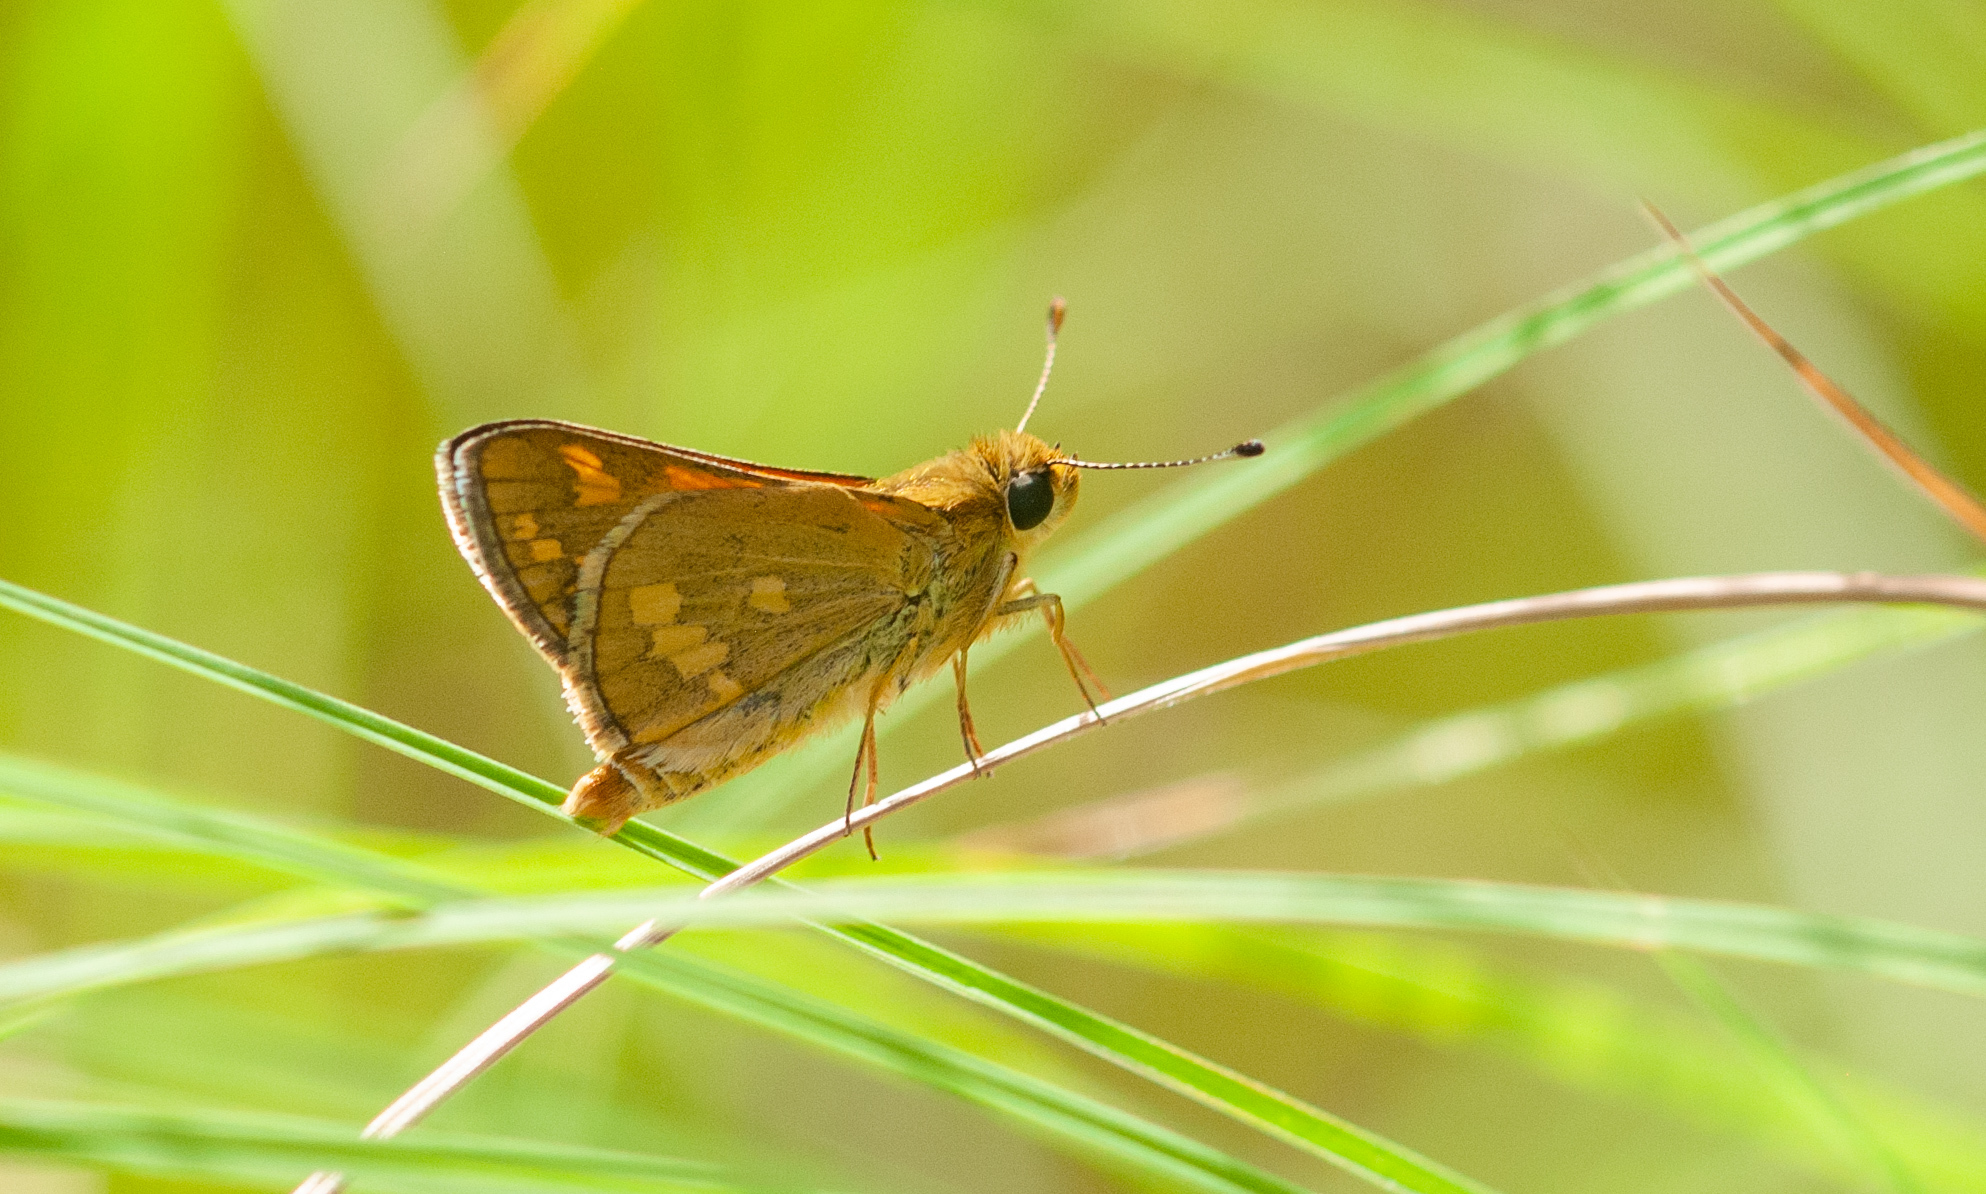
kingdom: Animalia
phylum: Arthropoda
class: Insecta
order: Lepidoptera
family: Hesperiidae
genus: Taractrocera
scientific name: Taractrocera ina
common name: Ina grass-dart
